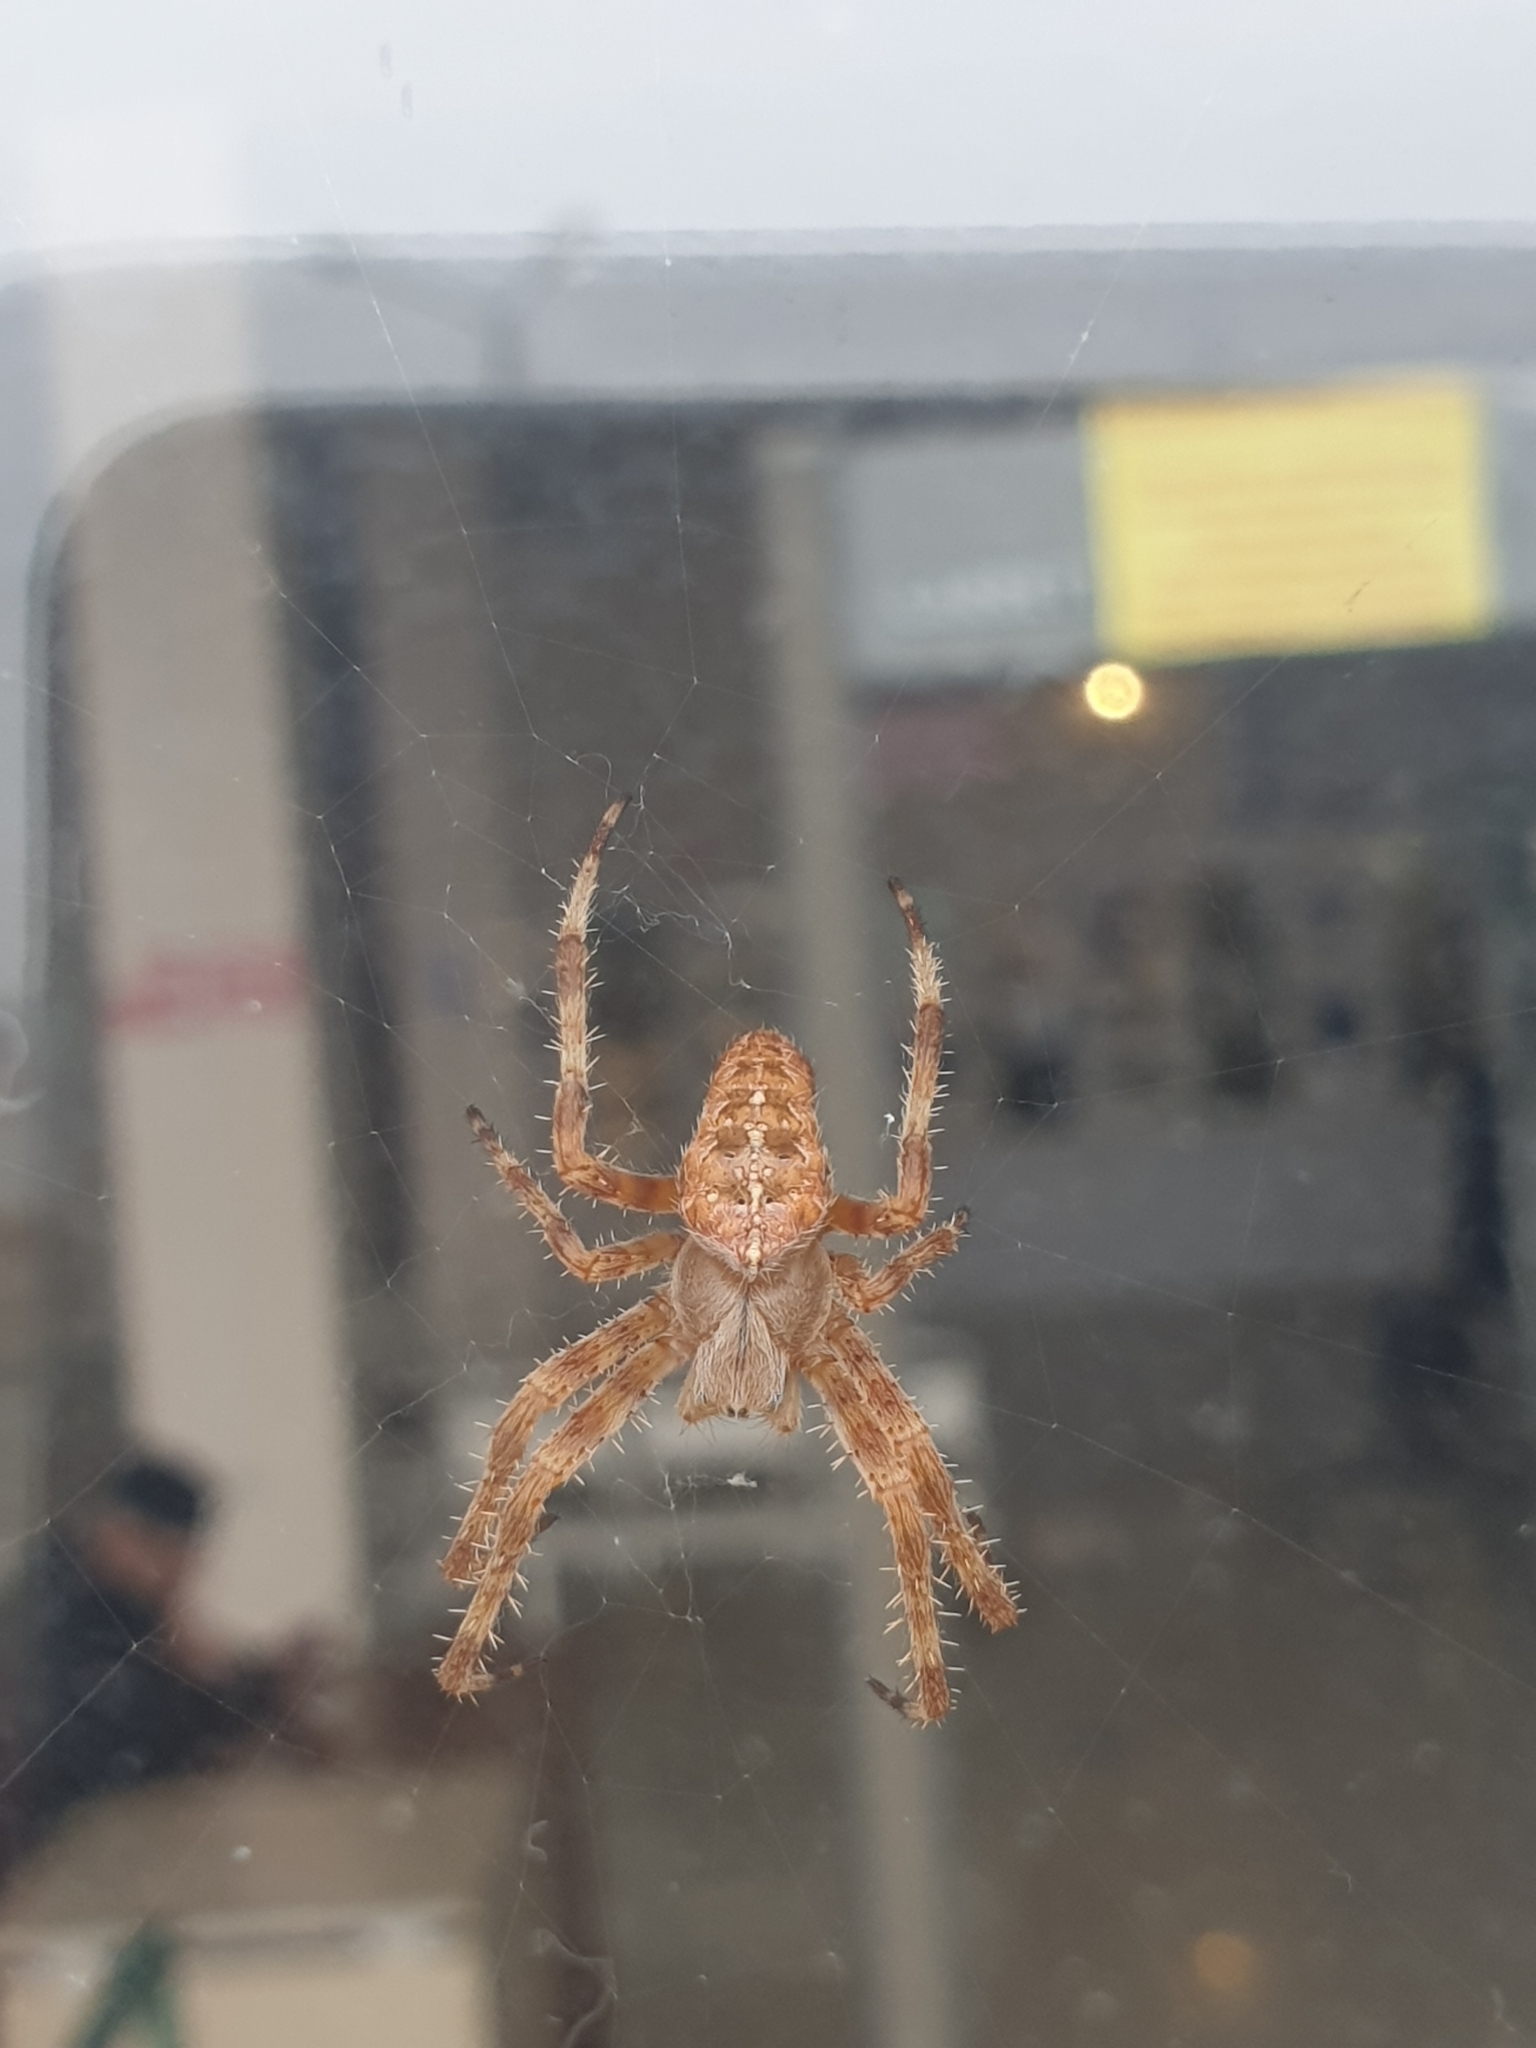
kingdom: Animalia
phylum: Arthropoda
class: Arachnida
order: Araneae
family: Araneidae
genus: Araneus
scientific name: Araneus diadematus
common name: Cross orbweaver
